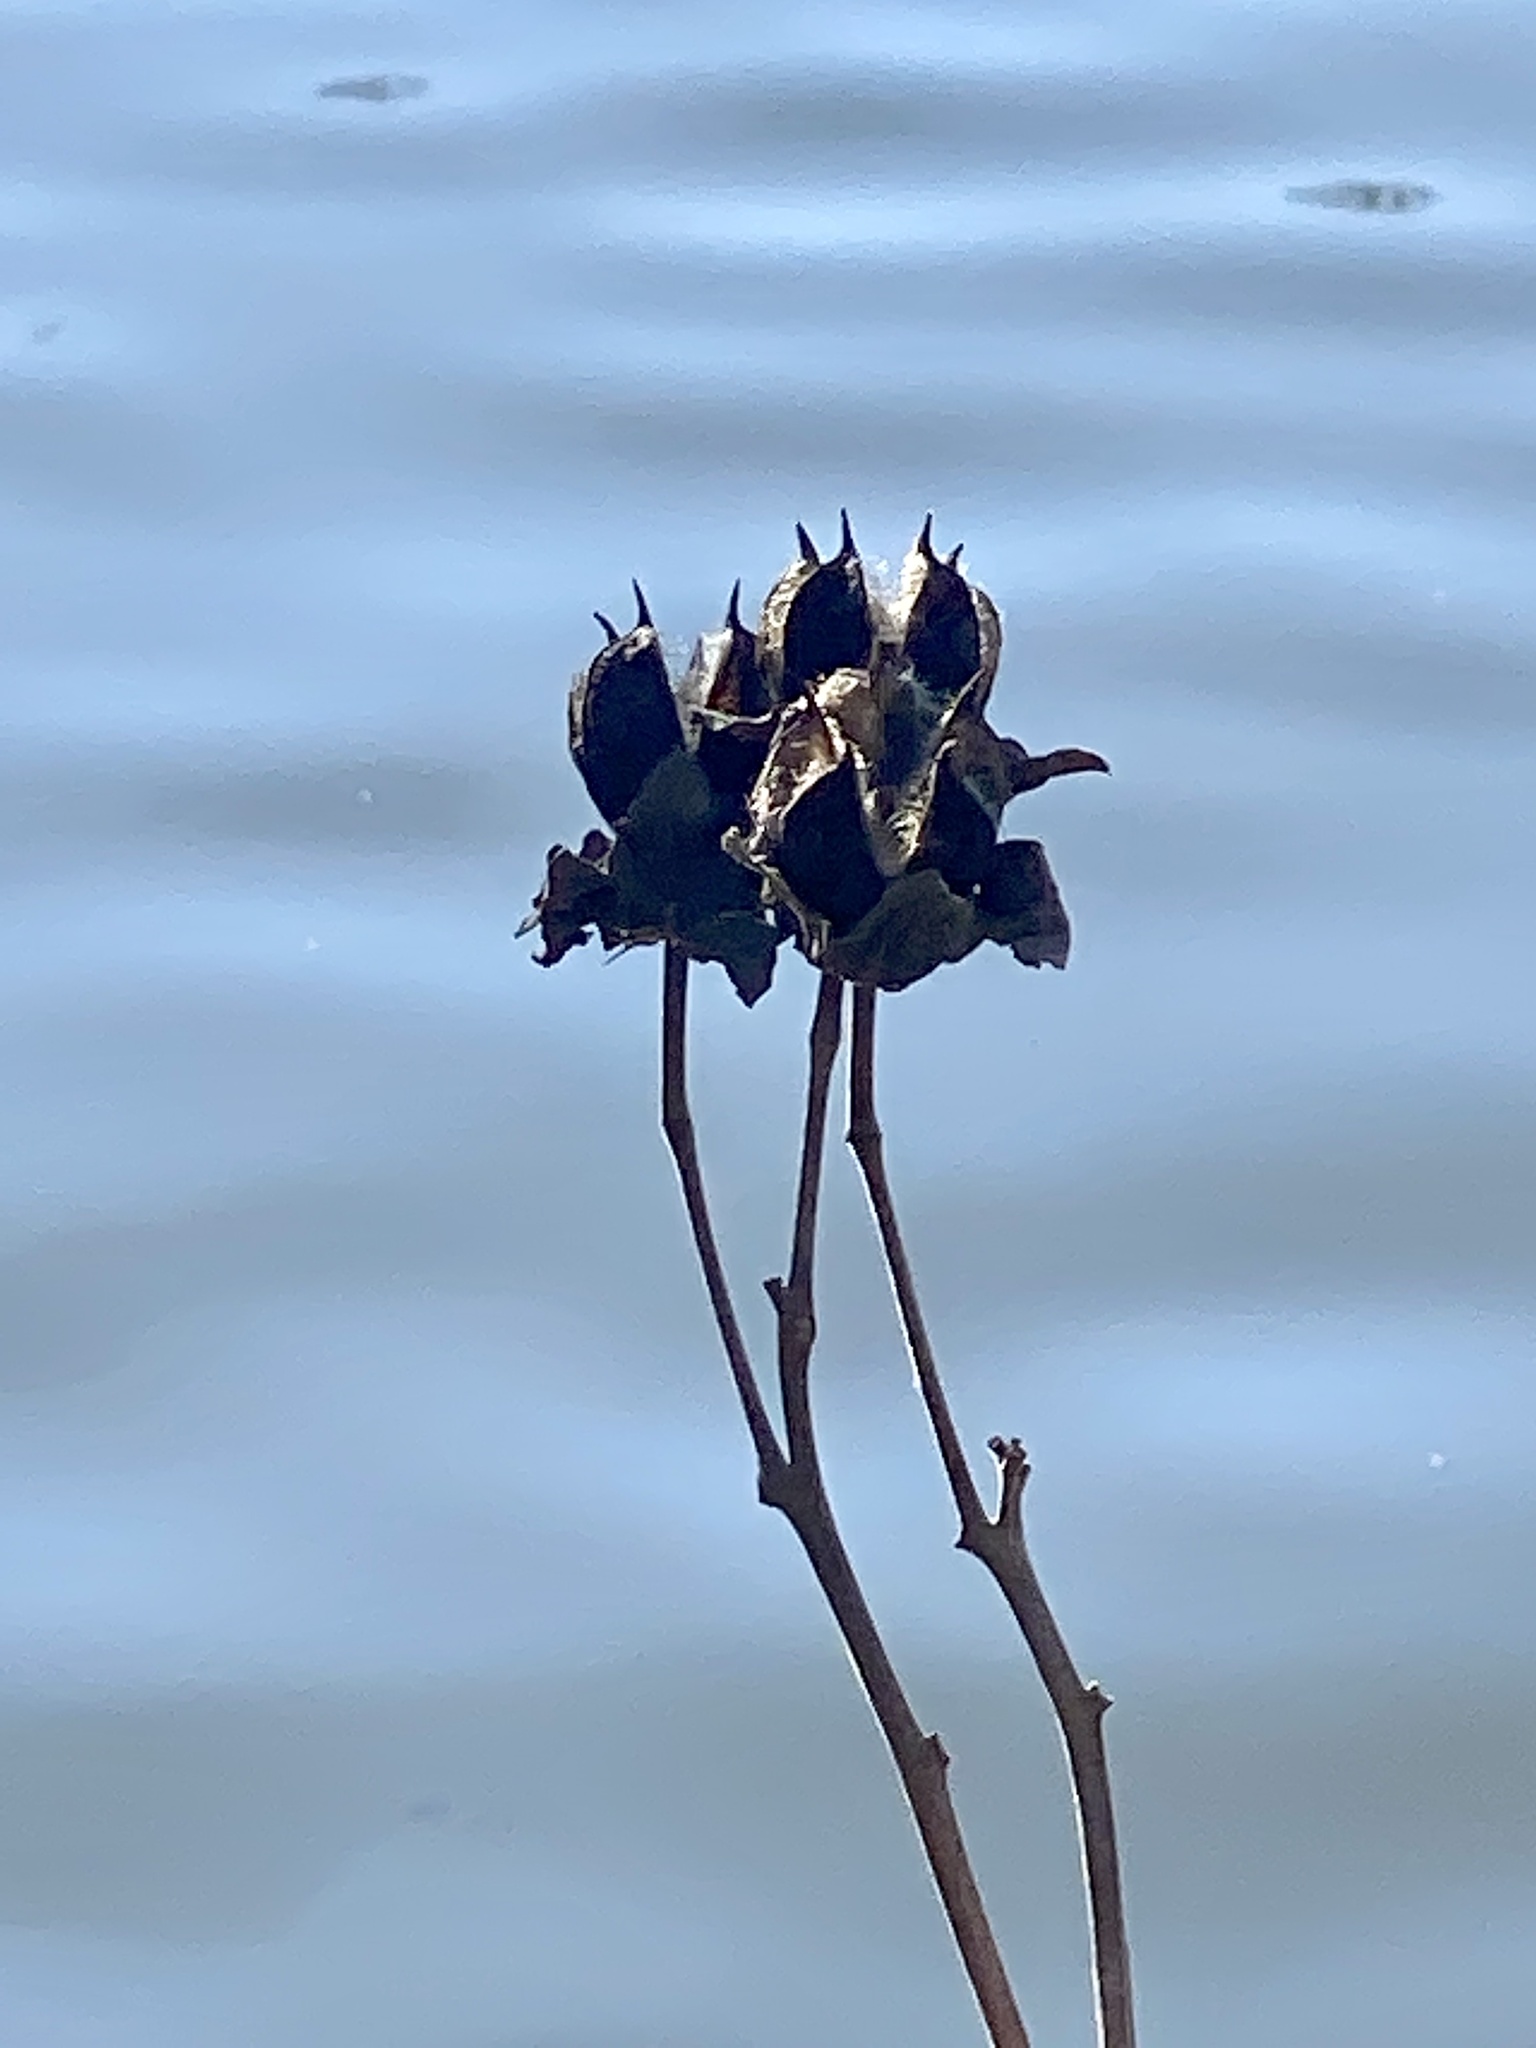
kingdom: Plantae
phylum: Tracheophyta
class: Magnoliopsida
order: Malvales
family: Malvaceae
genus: Hibiscus
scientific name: Hibiscus moscheutos
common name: Common rose-mallow
